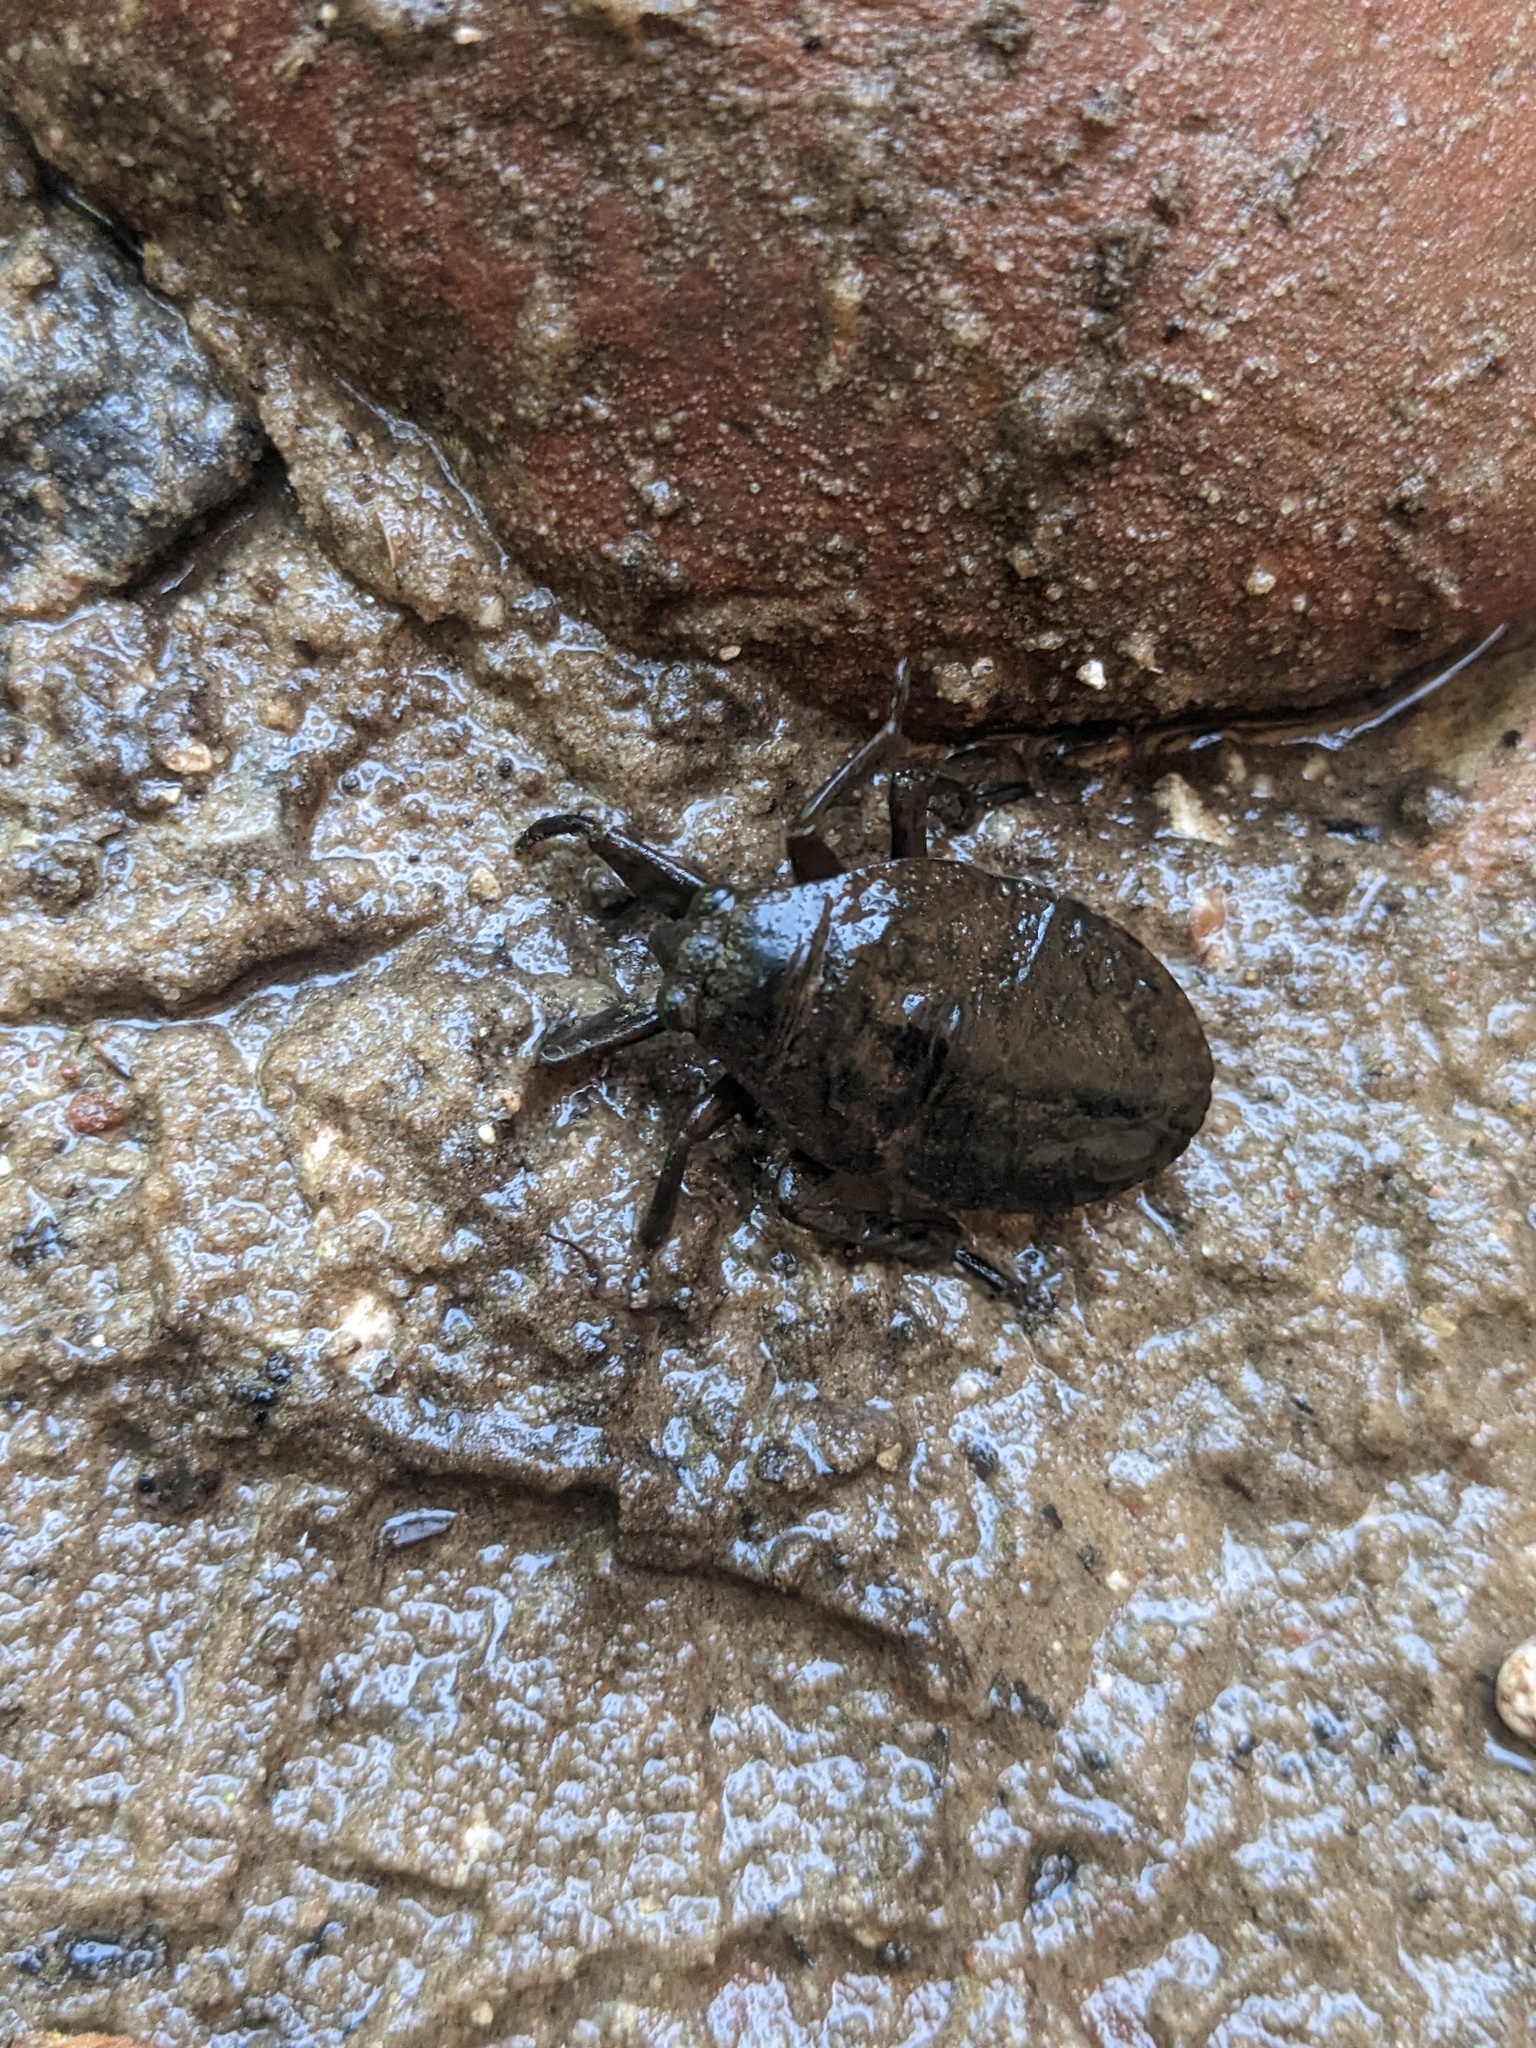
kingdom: Animalia
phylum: Arthropoda
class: Insecta
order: Hemiptera
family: Belostomatidae
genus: Abedus
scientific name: Abedus
